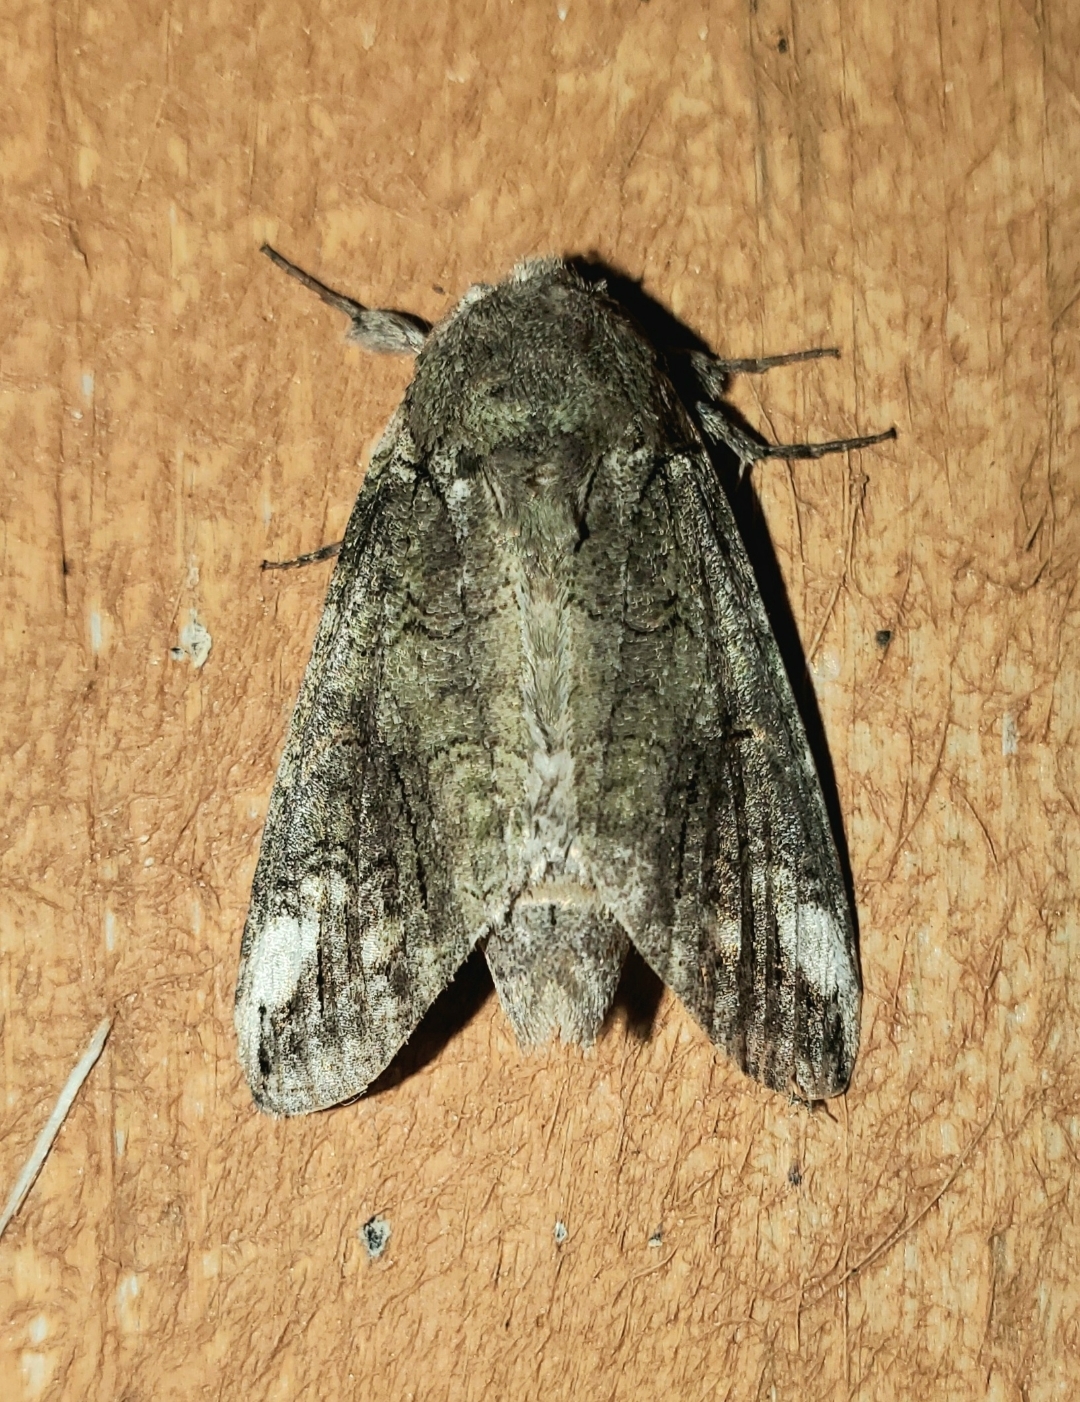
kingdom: Animalia
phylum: Arthropoda
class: Insecta
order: Lepidoptera
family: Notodontidae
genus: Heterocampa
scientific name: Heterocampa obliqua
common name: Oblique heterocampa
